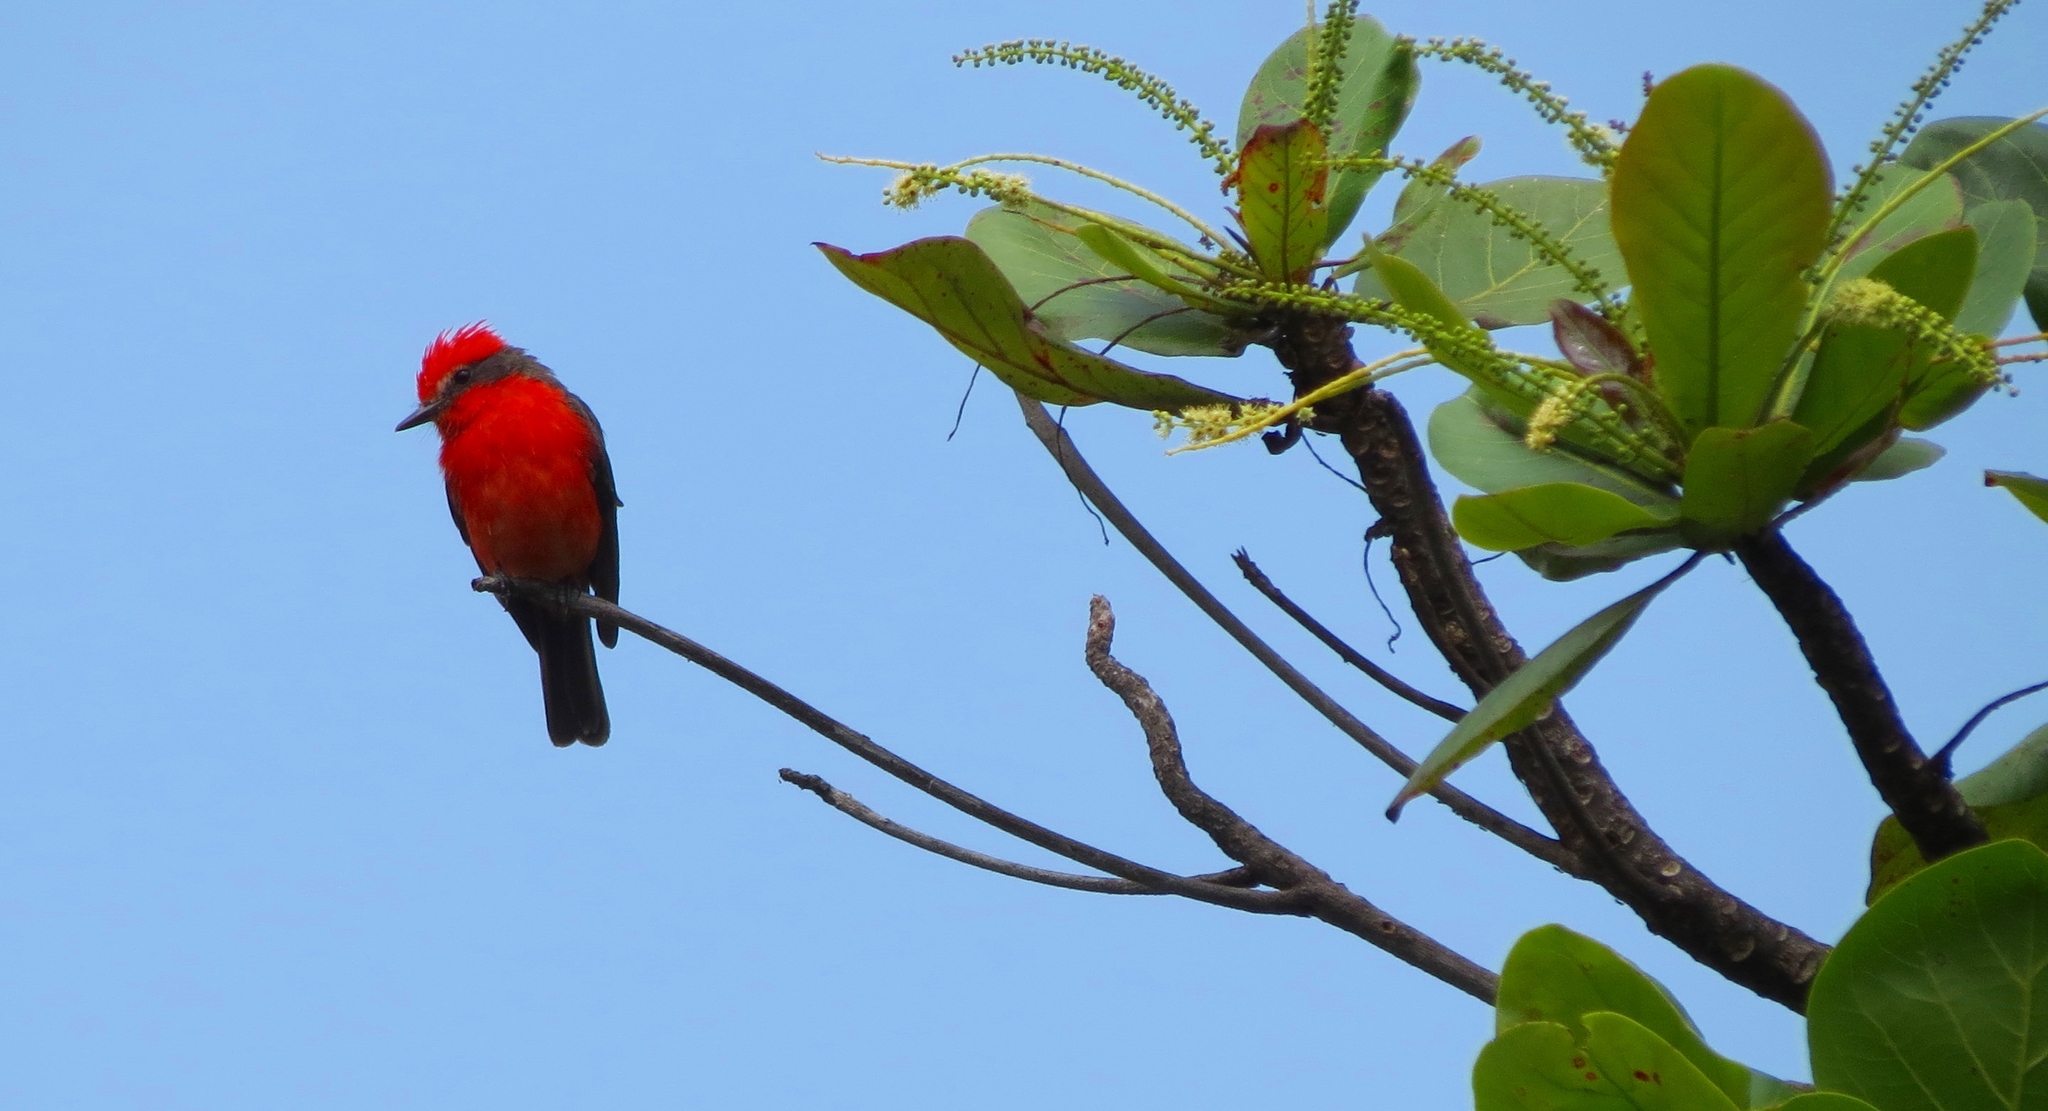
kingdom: Animalia
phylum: Chordata
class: Aves
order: Passeriformes
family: Tyrannidae
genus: Pyrocephalus
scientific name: Pyrocephalus rubinus
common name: Vermilion flycatcher
